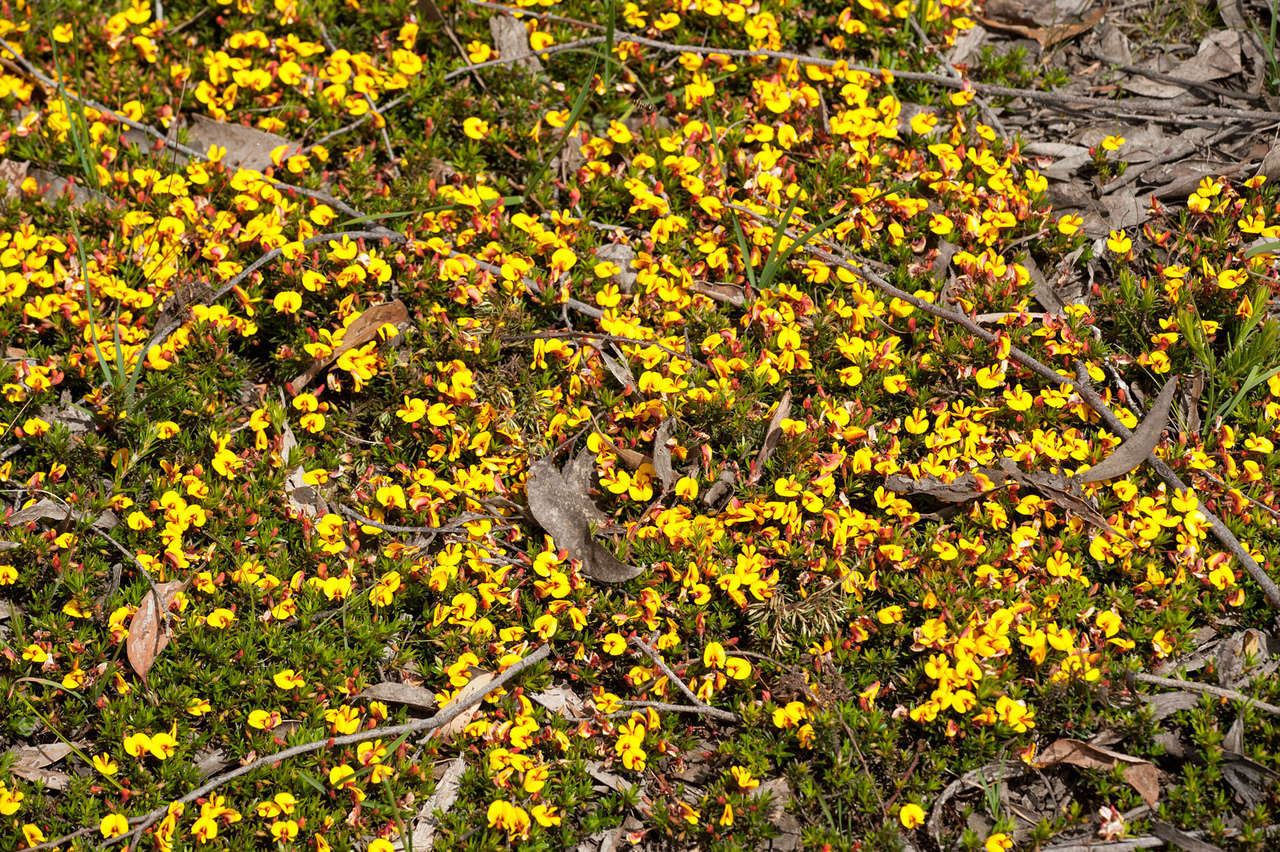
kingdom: Plantae
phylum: Tracheophyta
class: Magnoliopsida
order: Fabales
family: Fabaceae
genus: Pultenaea
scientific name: Pultenaea pedunculata
